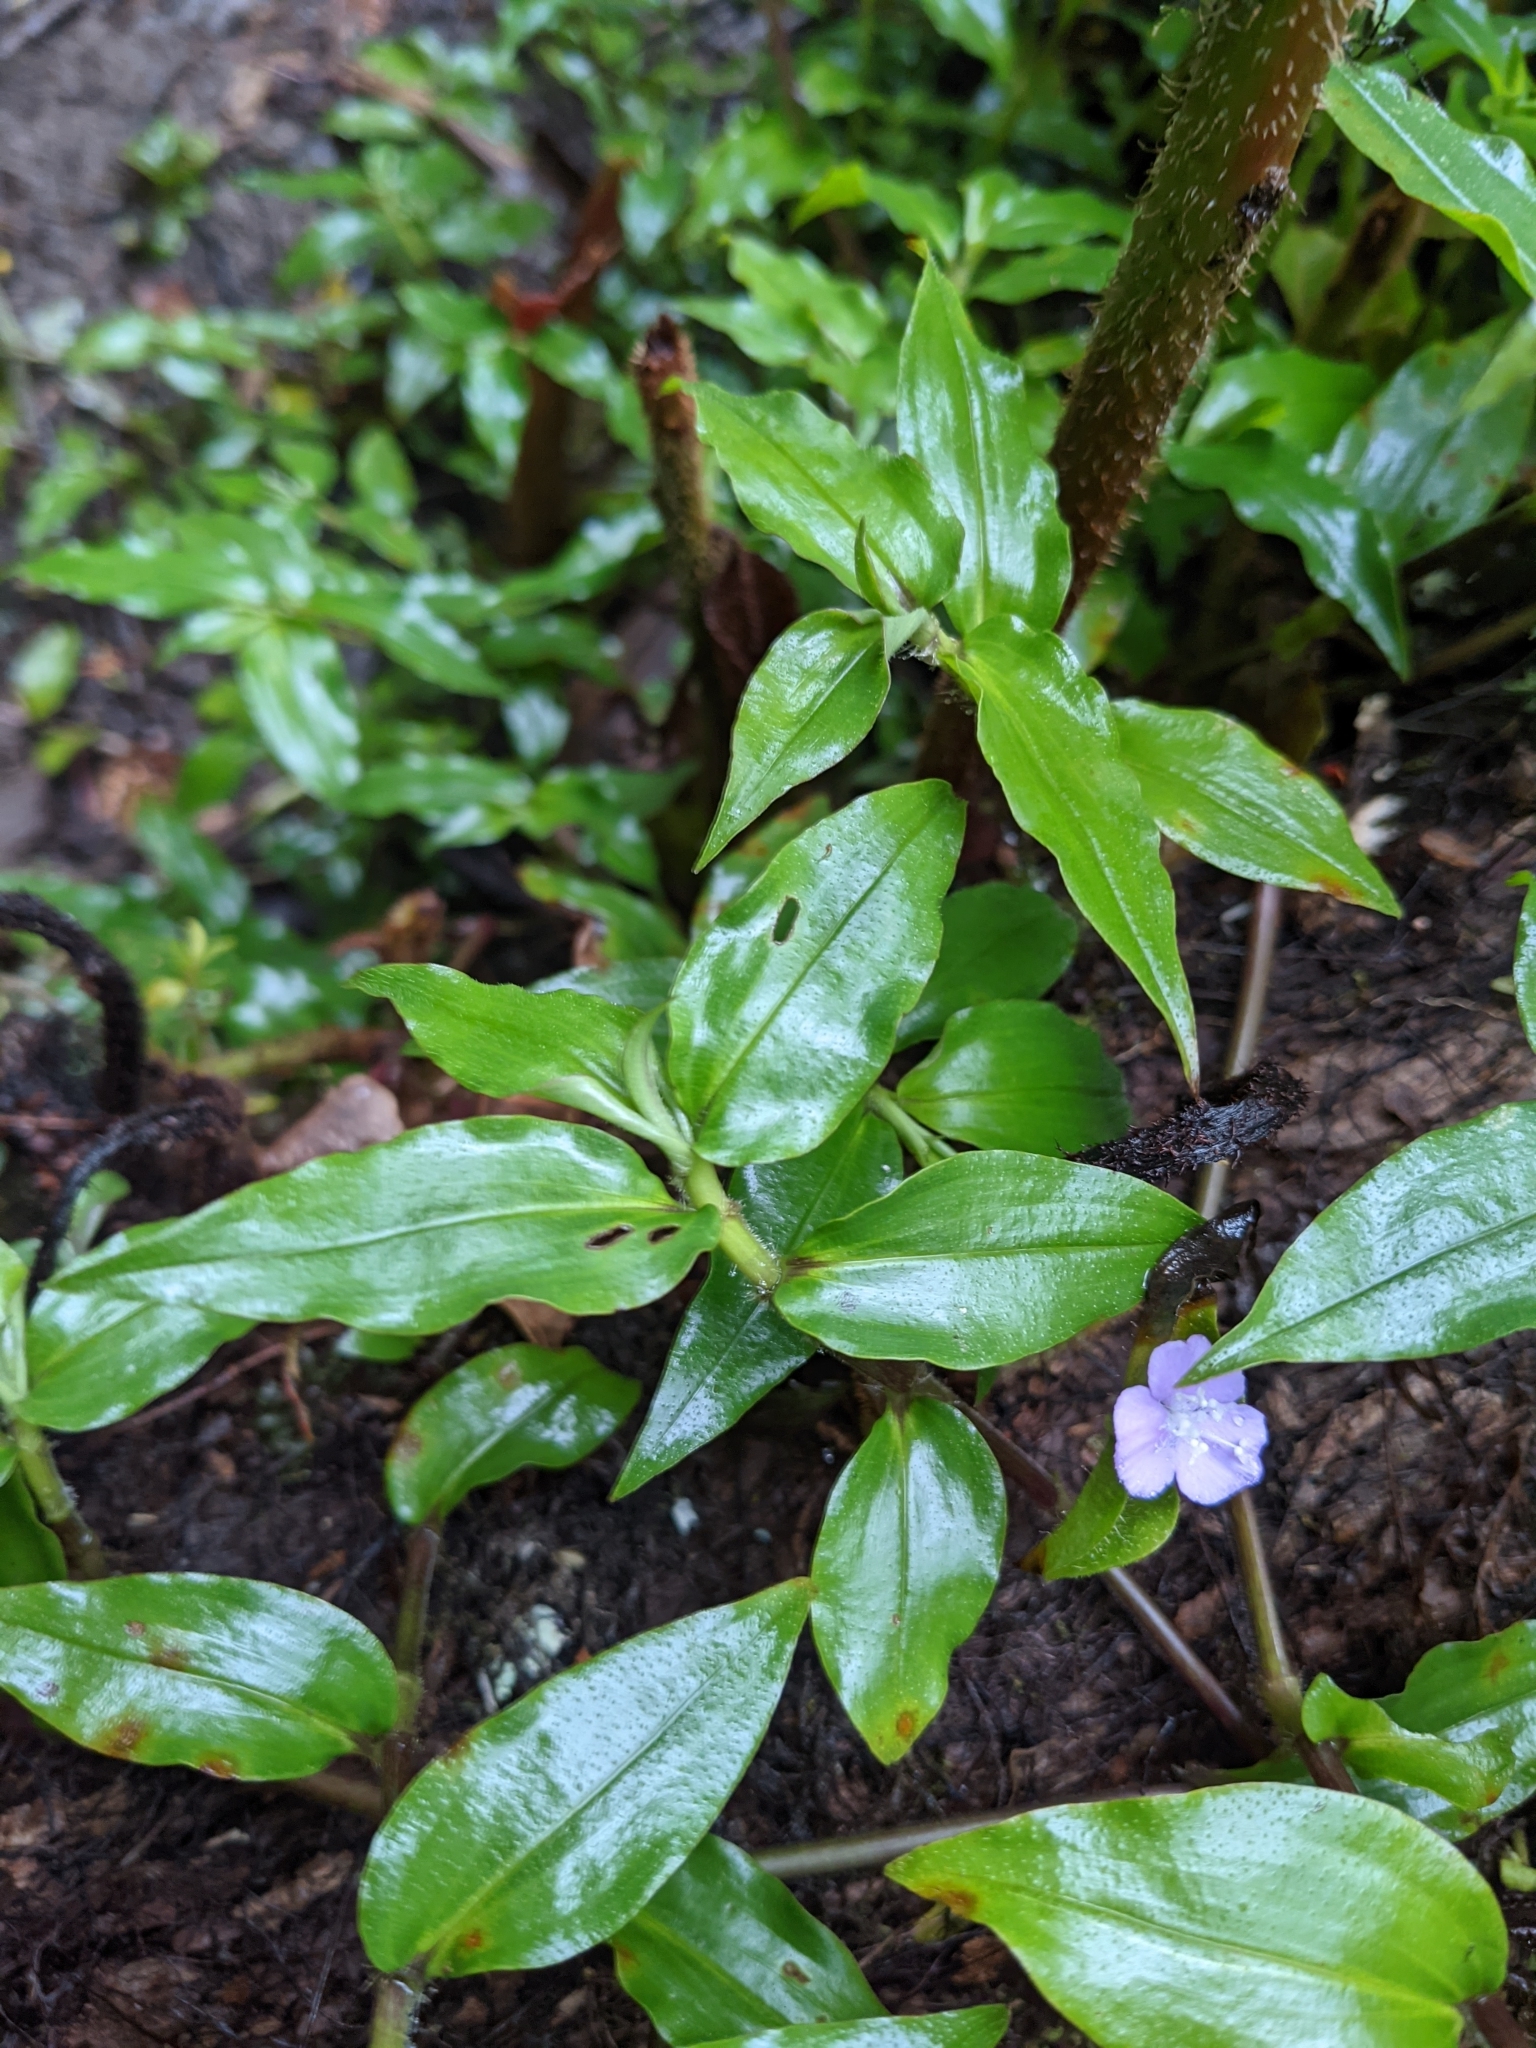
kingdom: Plantae
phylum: Tracheophyta
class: Liliopsida
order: Commelinales
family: Commelinaceae
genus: Tradescantia
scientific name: Tradescantia poelliae
